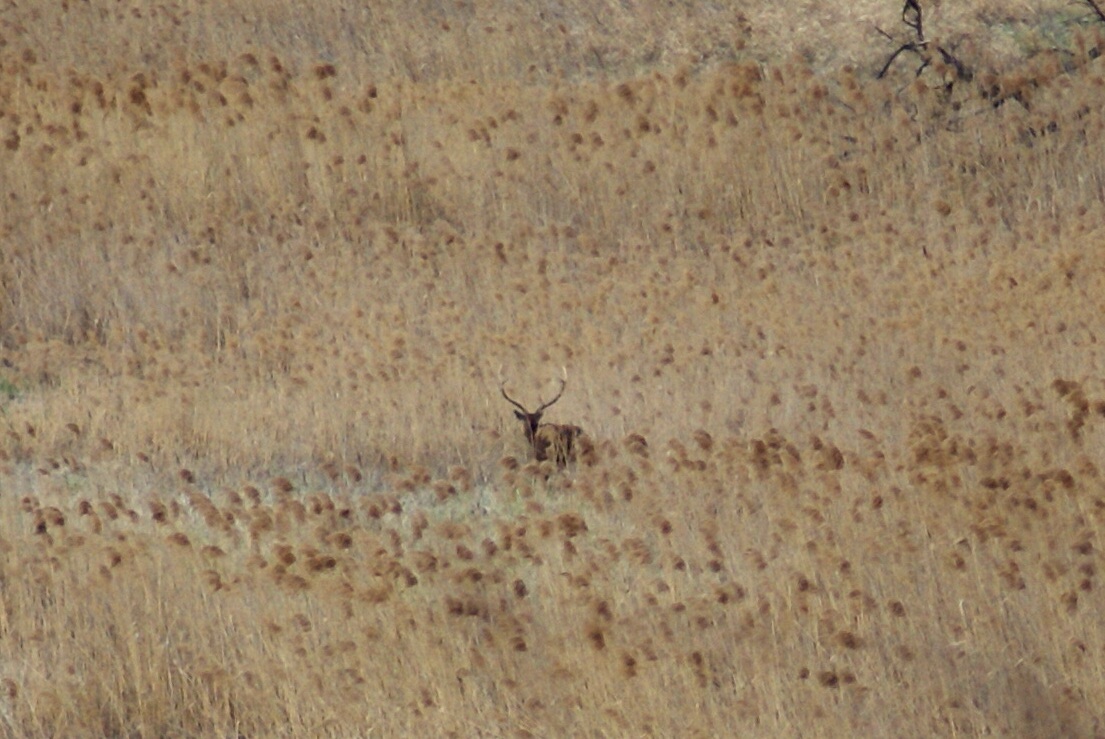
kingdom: Animalia
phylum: Chordata
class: Mammalia
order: Artiodactyla
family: Cervidae
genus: Cervus
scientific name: Cervus nippon
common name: Sika deer
